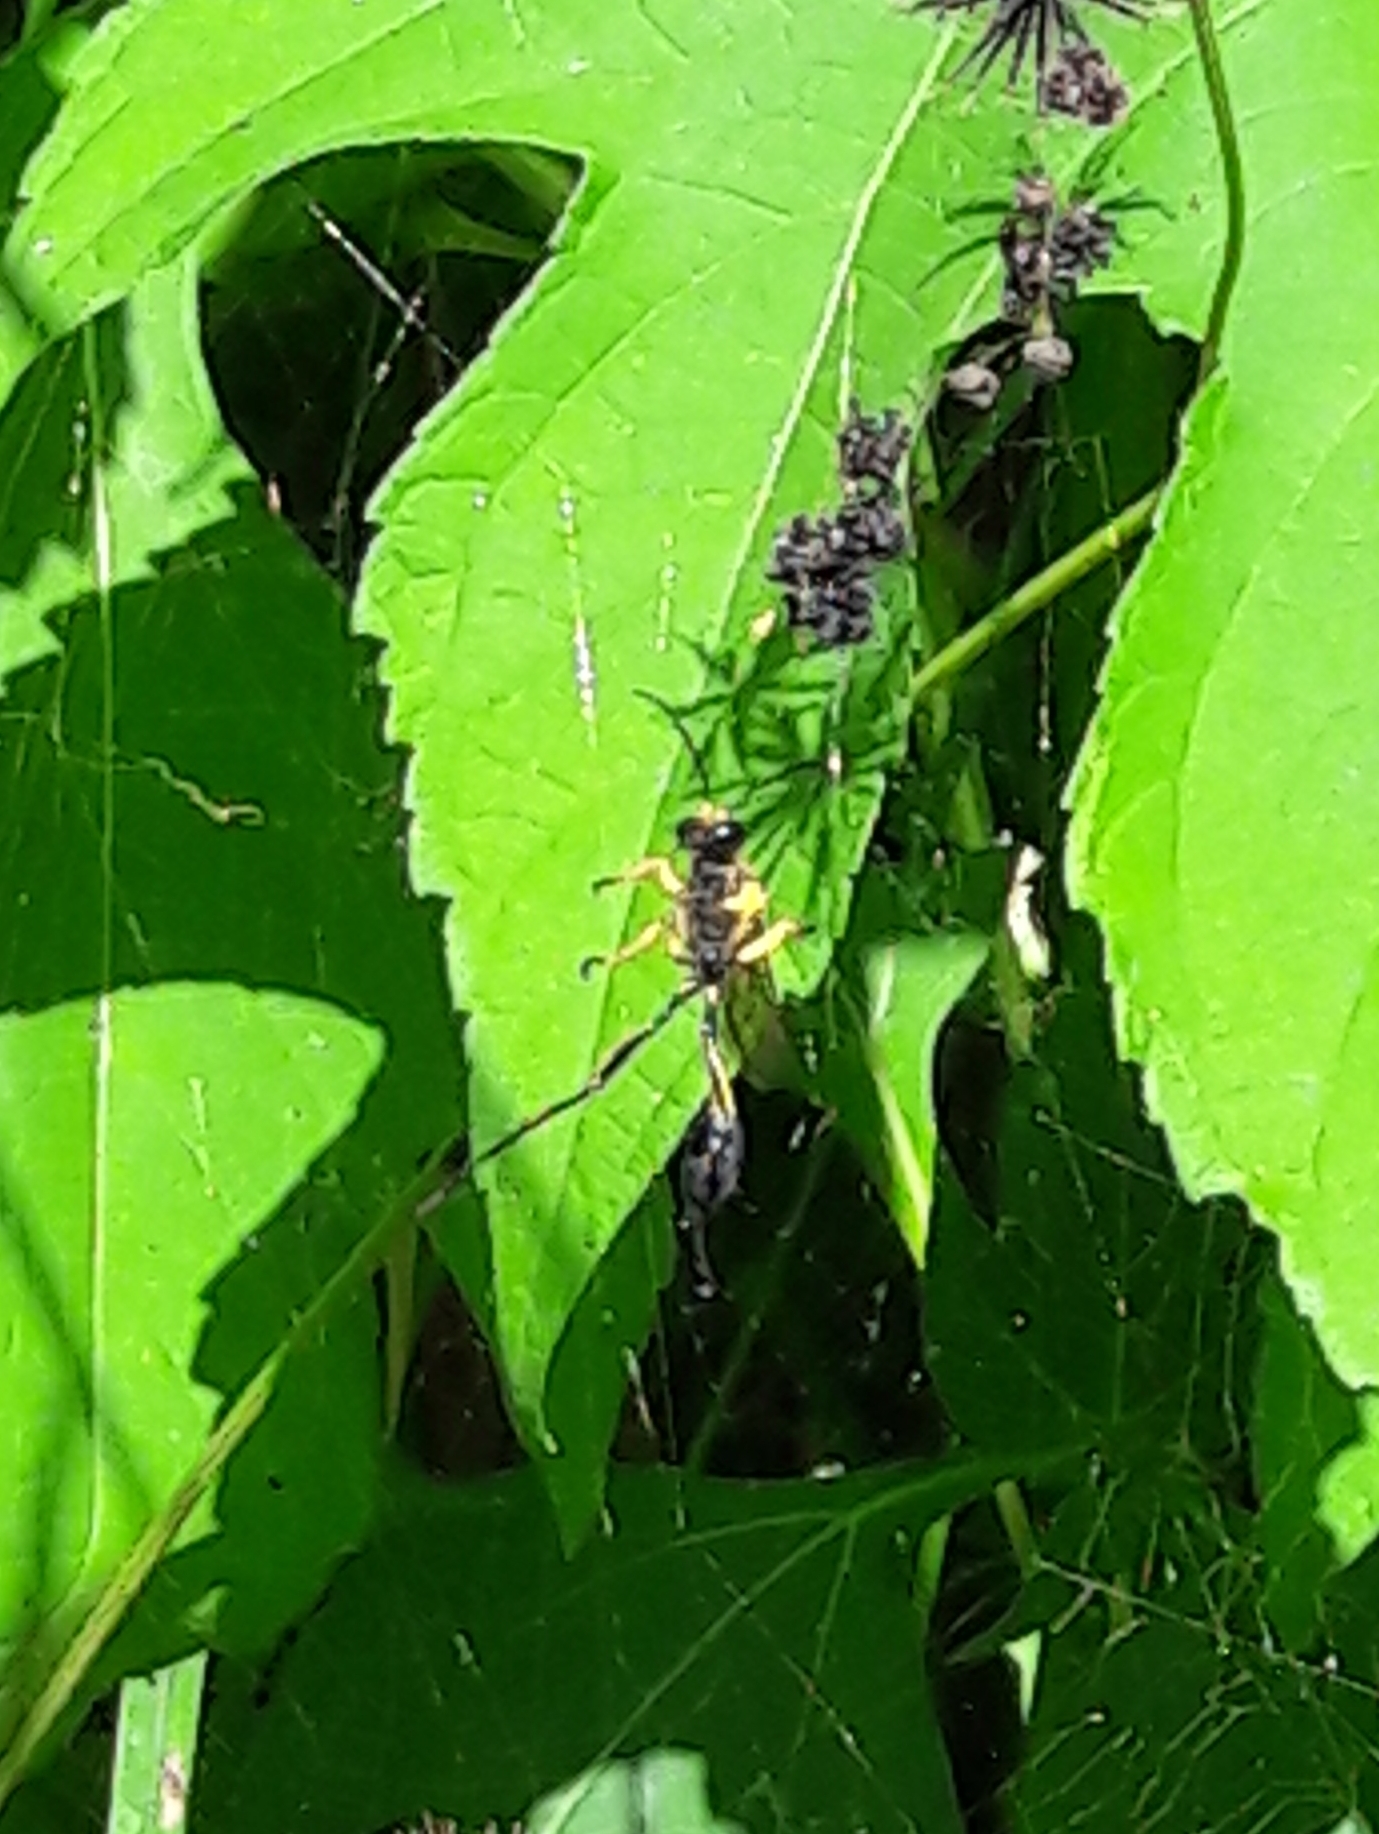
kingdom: Animalia
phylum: Arthropoda
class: Insecta
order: Hymenoptera
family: Sphecidae
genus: Sceliphron
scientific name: Sceliphron fistularium
